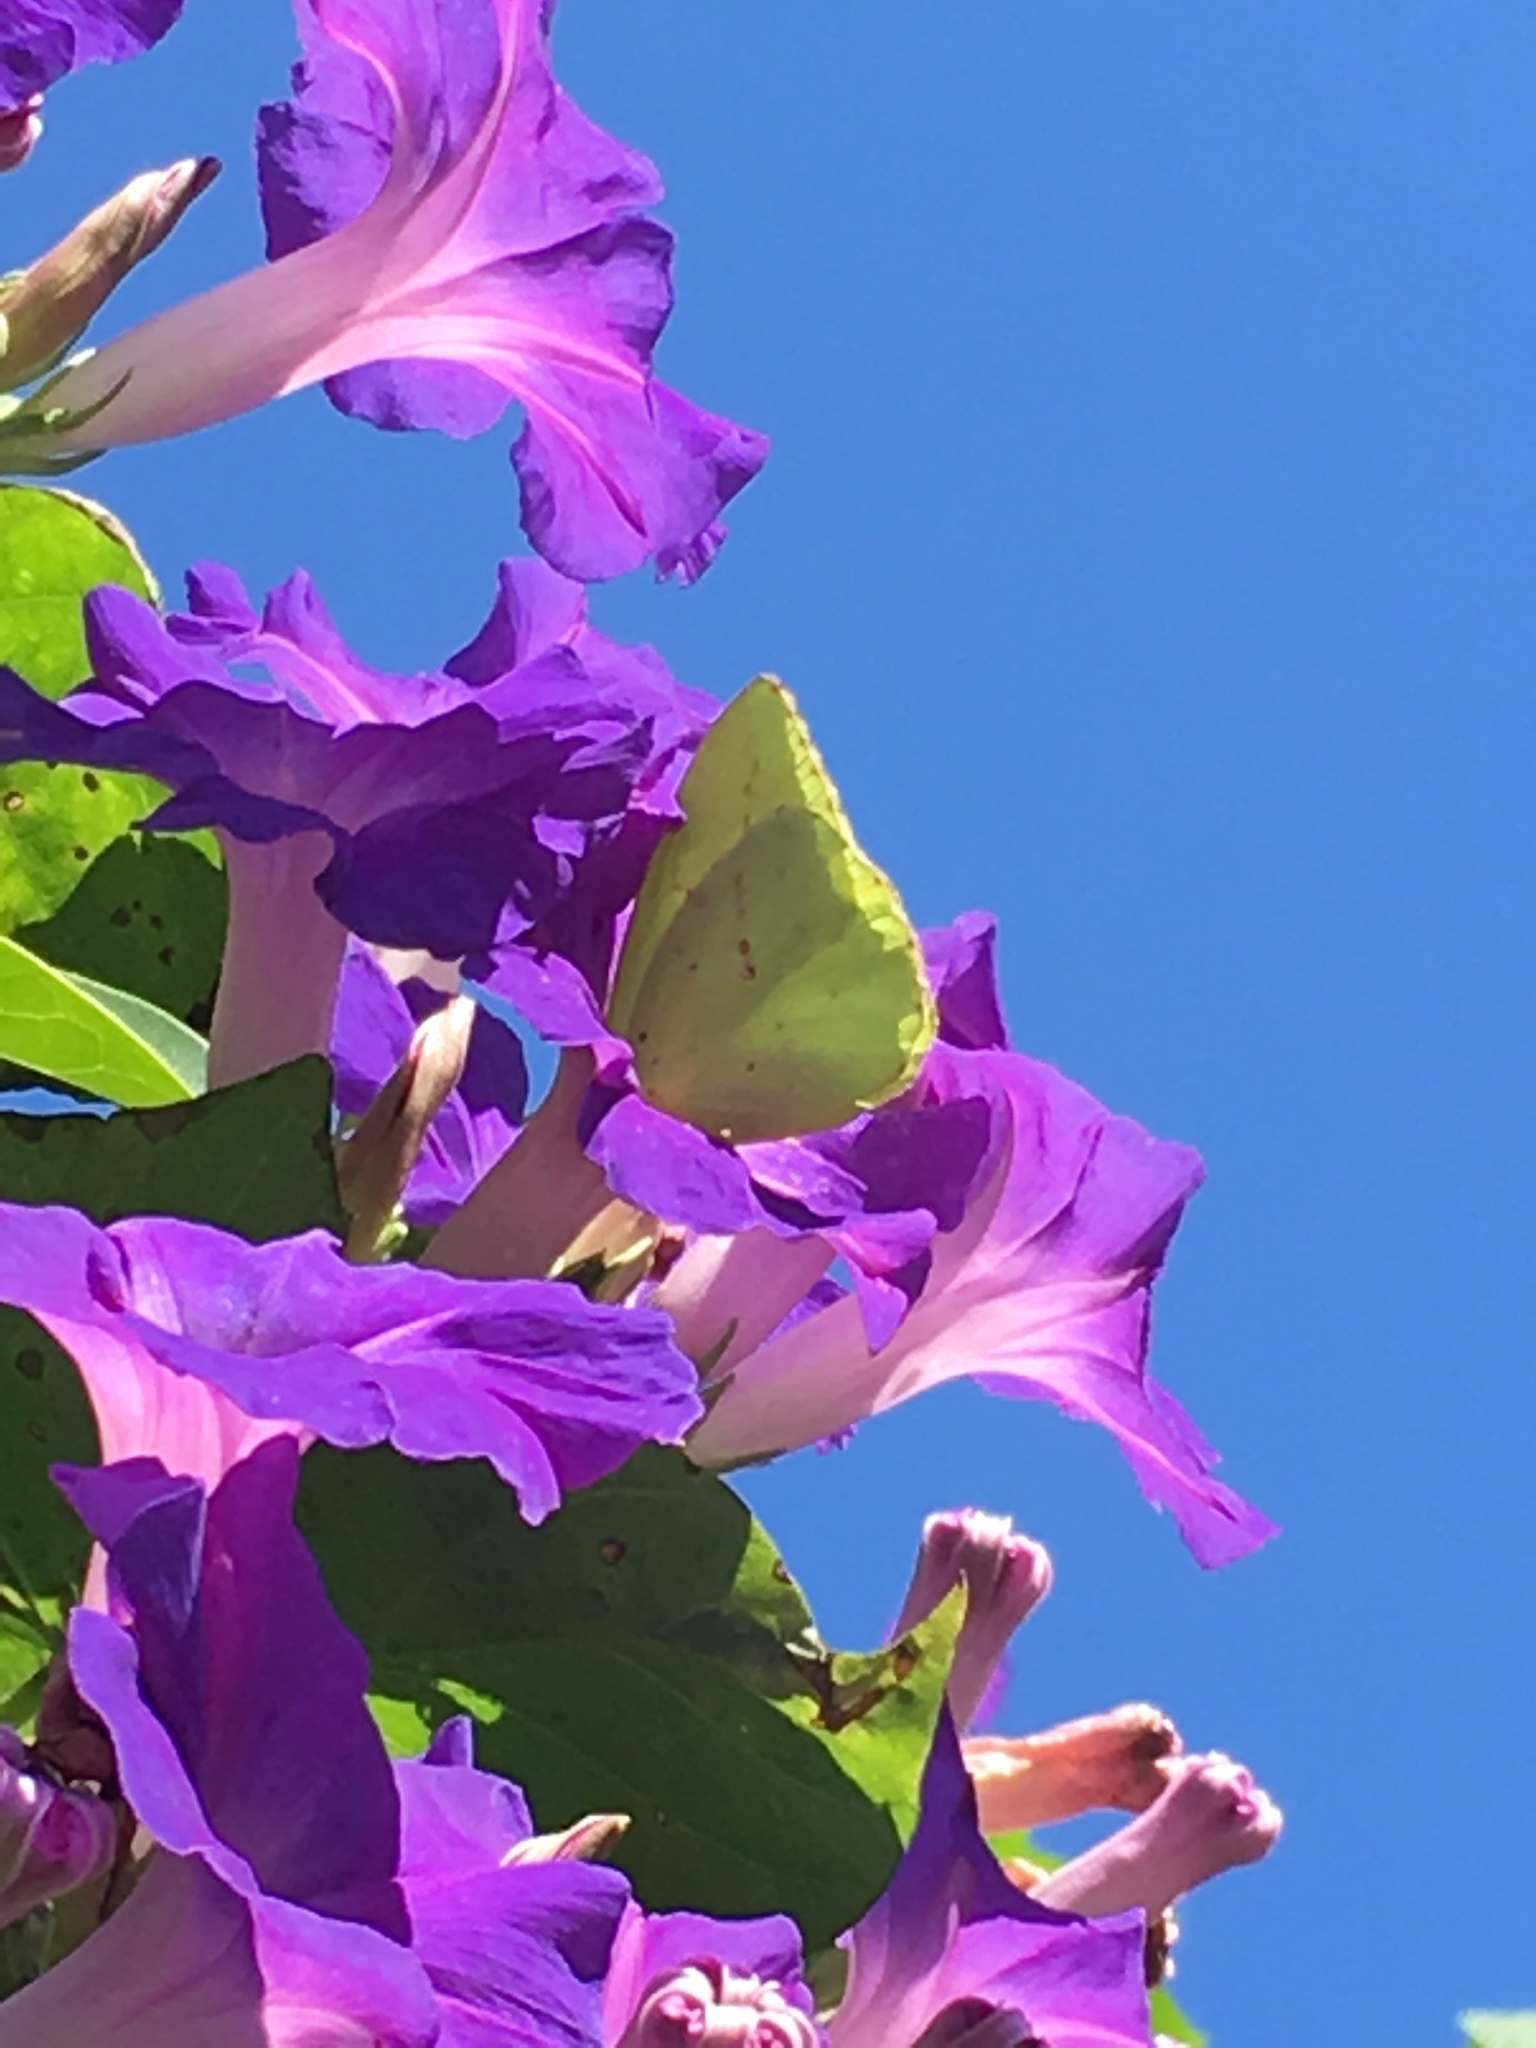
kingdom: Animalia
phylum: Arthropoda
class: Insecta
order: Lepidoptera
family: Pieridae
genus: Phoebis
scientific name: Phoebis sennae
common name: Cloudless sulphur
